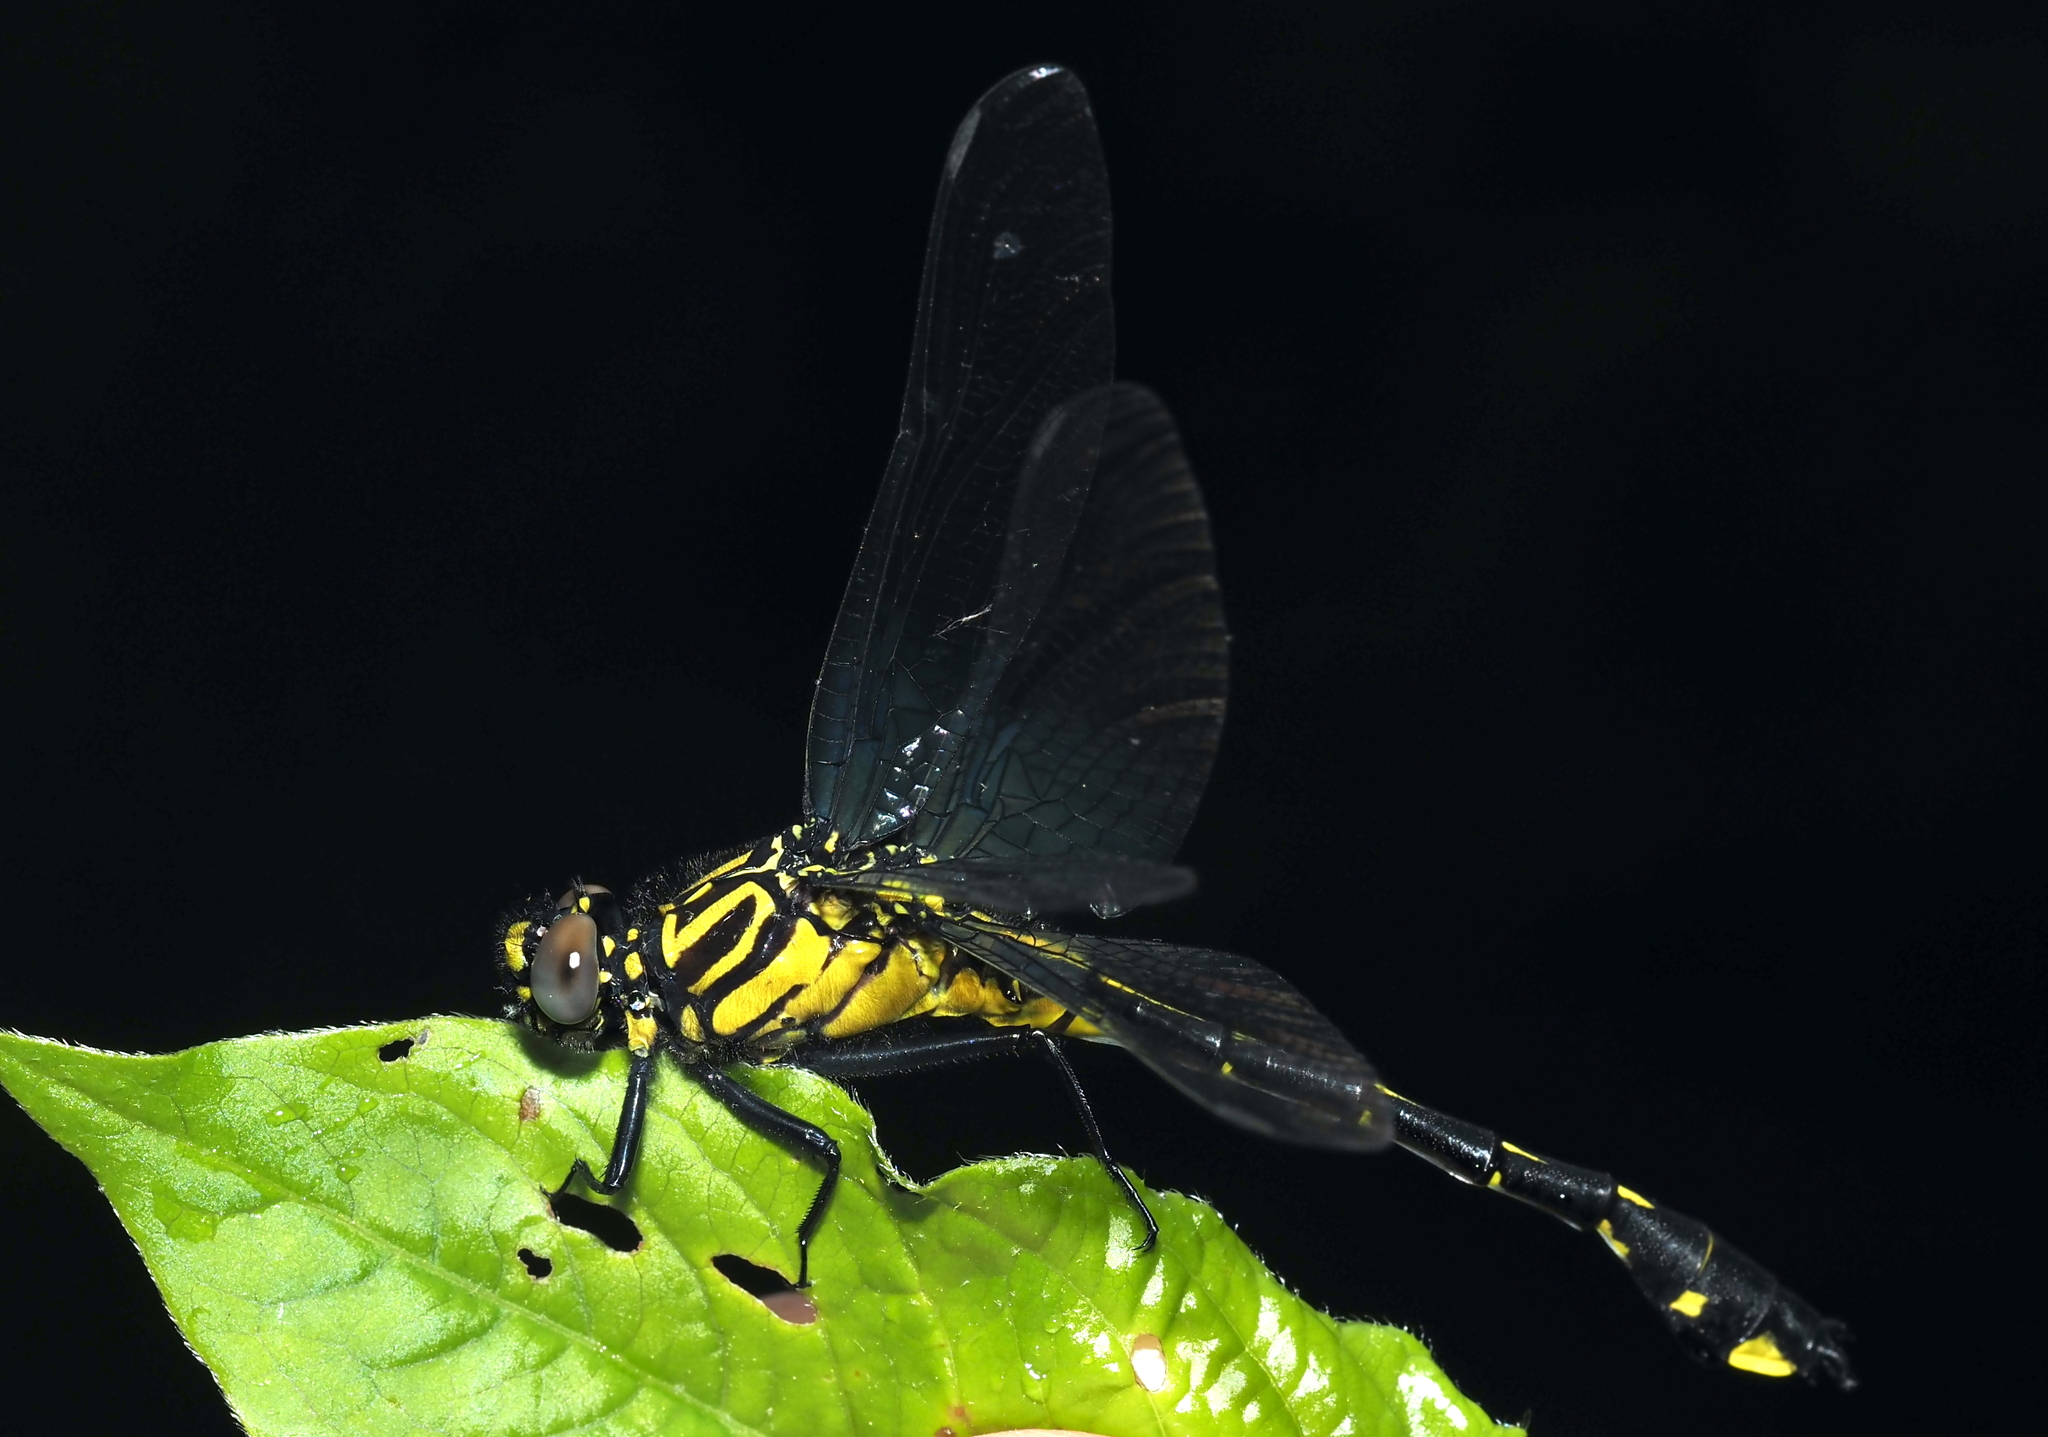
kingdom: Animalia
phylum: Arthropoda
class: Insecta
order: Odonata
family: Gomphidae
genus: Gomphurus
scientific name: Gomphurus vastus
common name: Cobra clubtail
